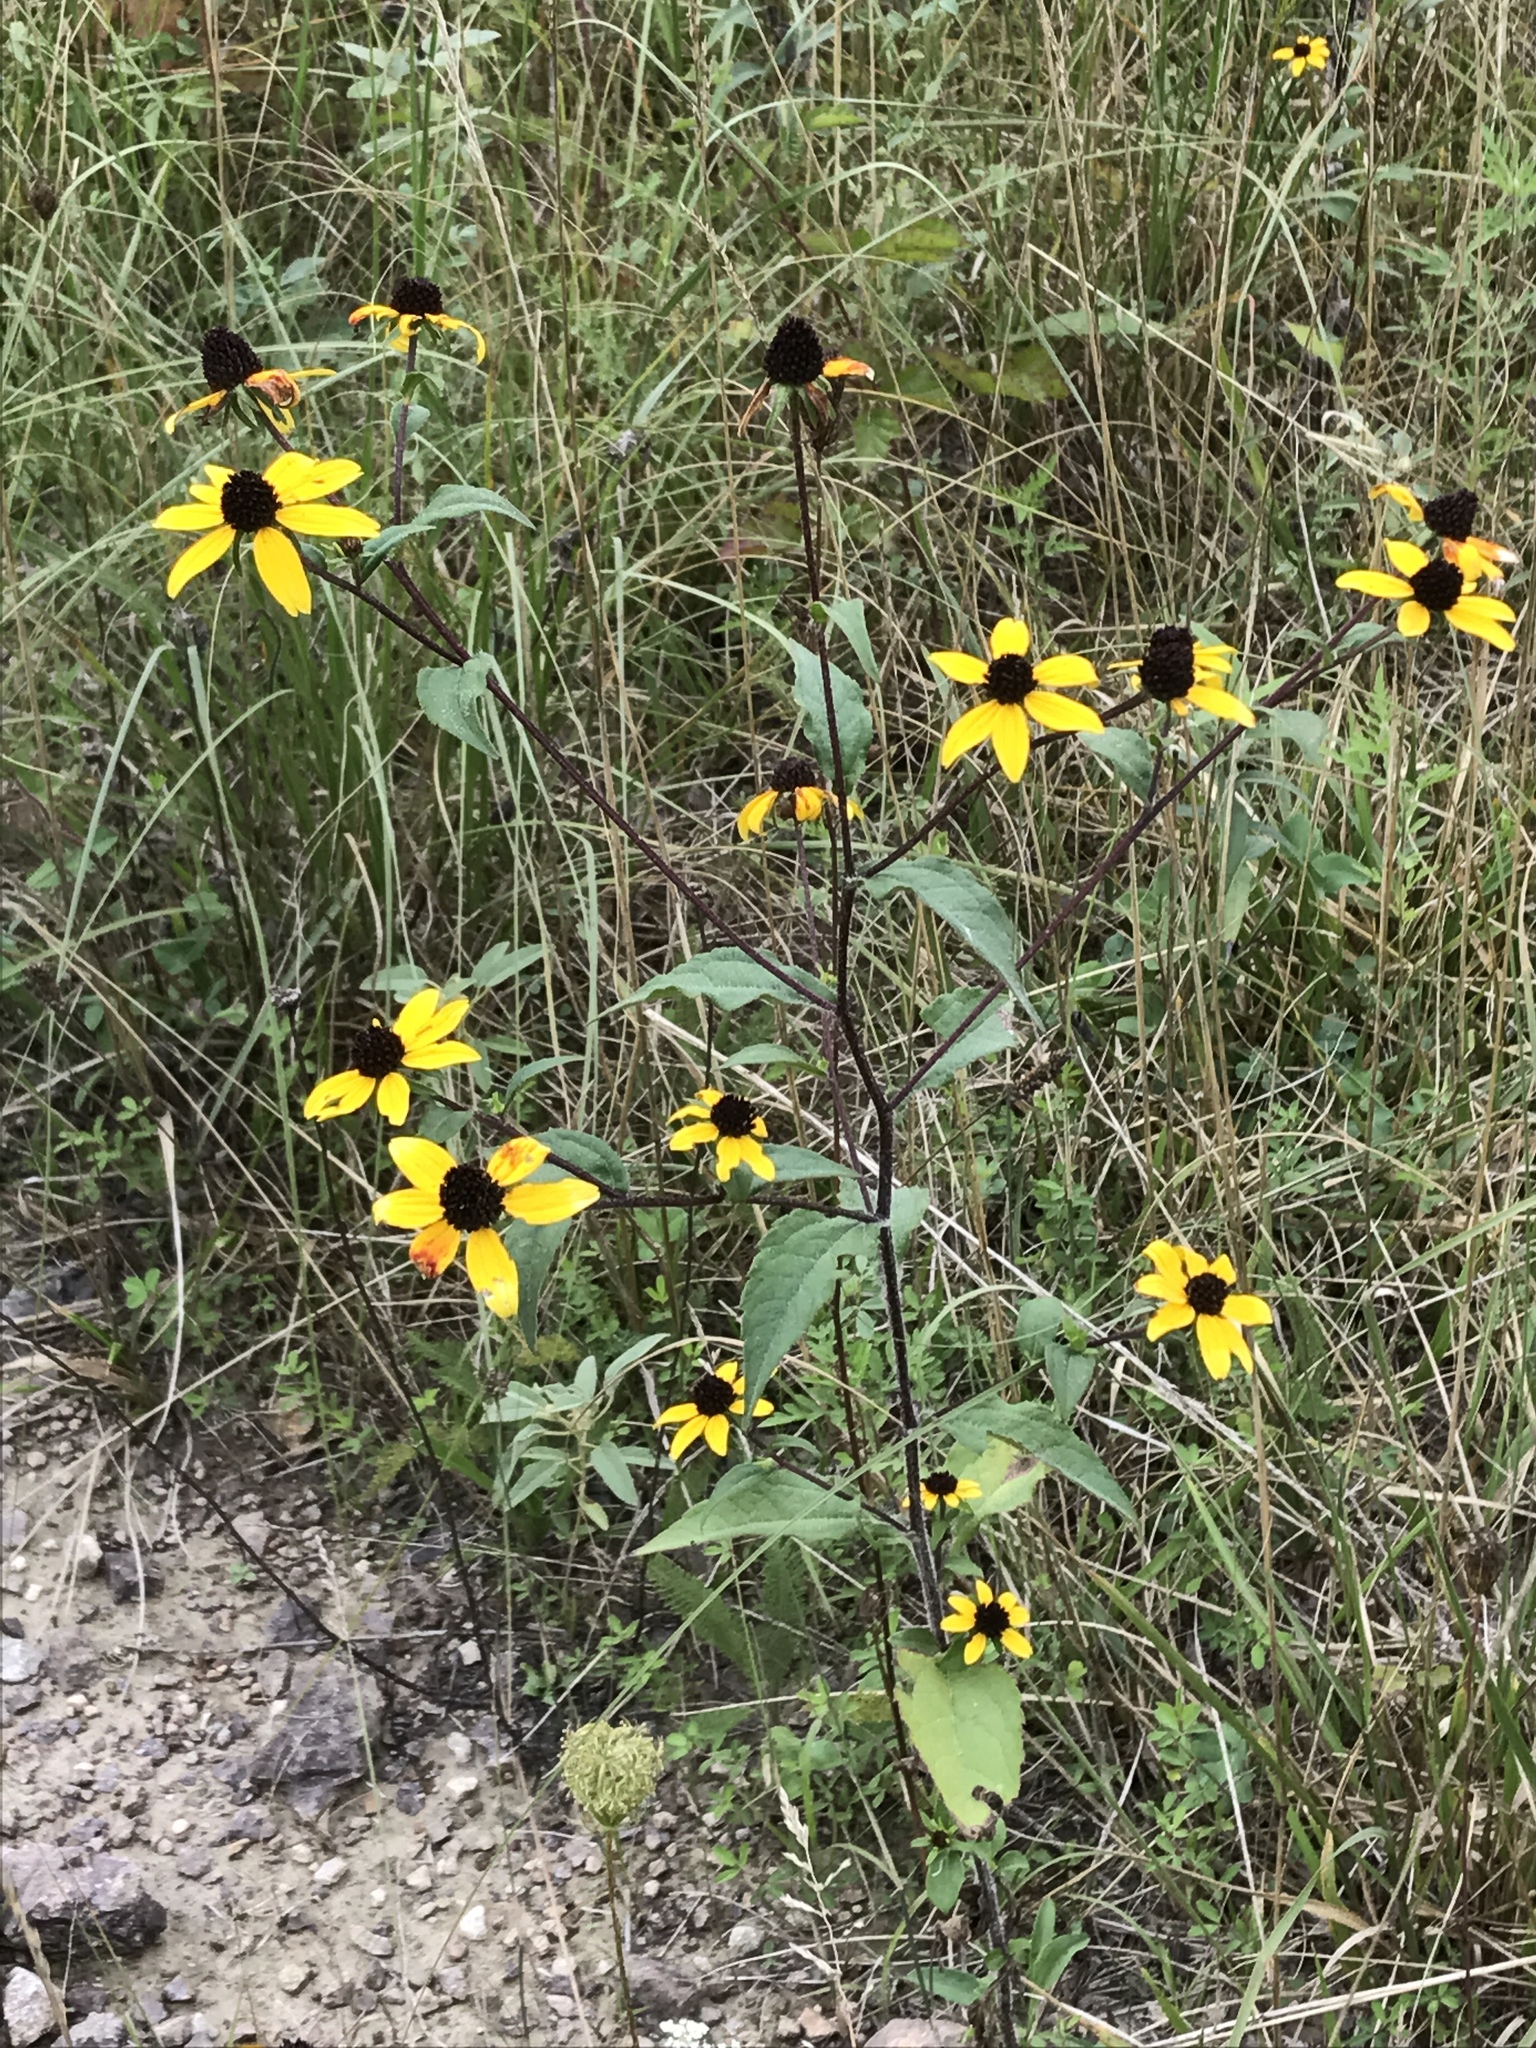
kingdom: Plantae
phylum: Tracheophyta
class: Magnoliopsida
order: Asterales
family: Asteraceae
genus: Rudbeckia
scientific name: Rudbeckia triloba
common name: Thin-leaved coneflower
